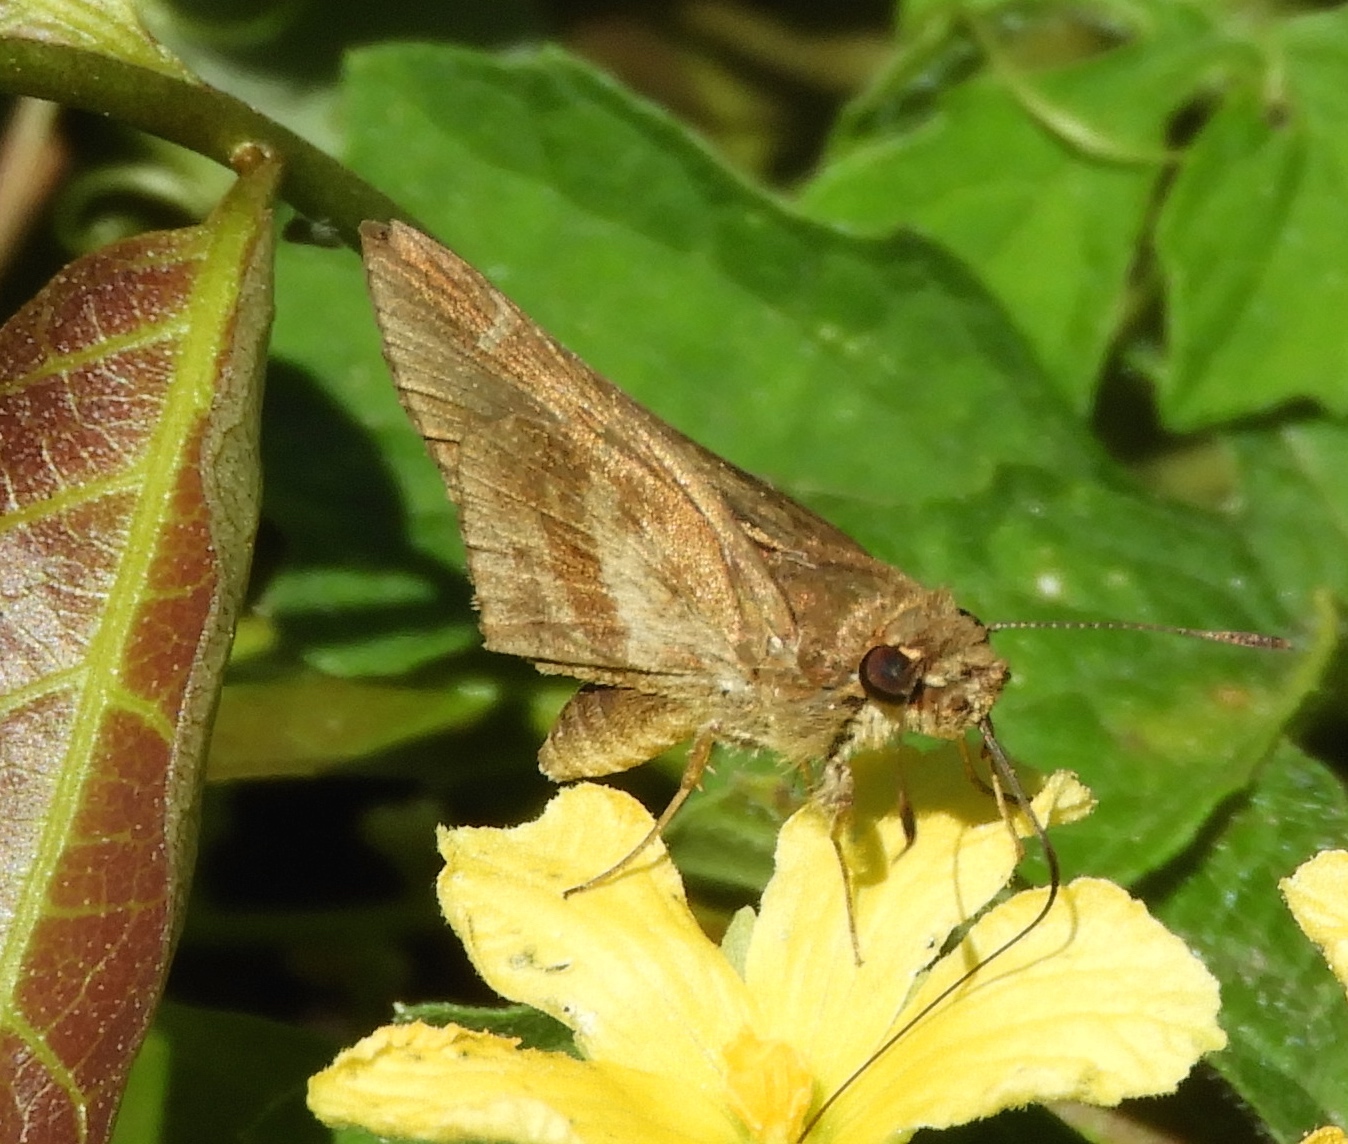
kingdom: Animalia
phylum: Arthropoda
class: Insecta
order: Lepidoptera
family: Hesperiidae
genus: Lerema
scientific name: Lerema accius
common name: Clouded skipper
